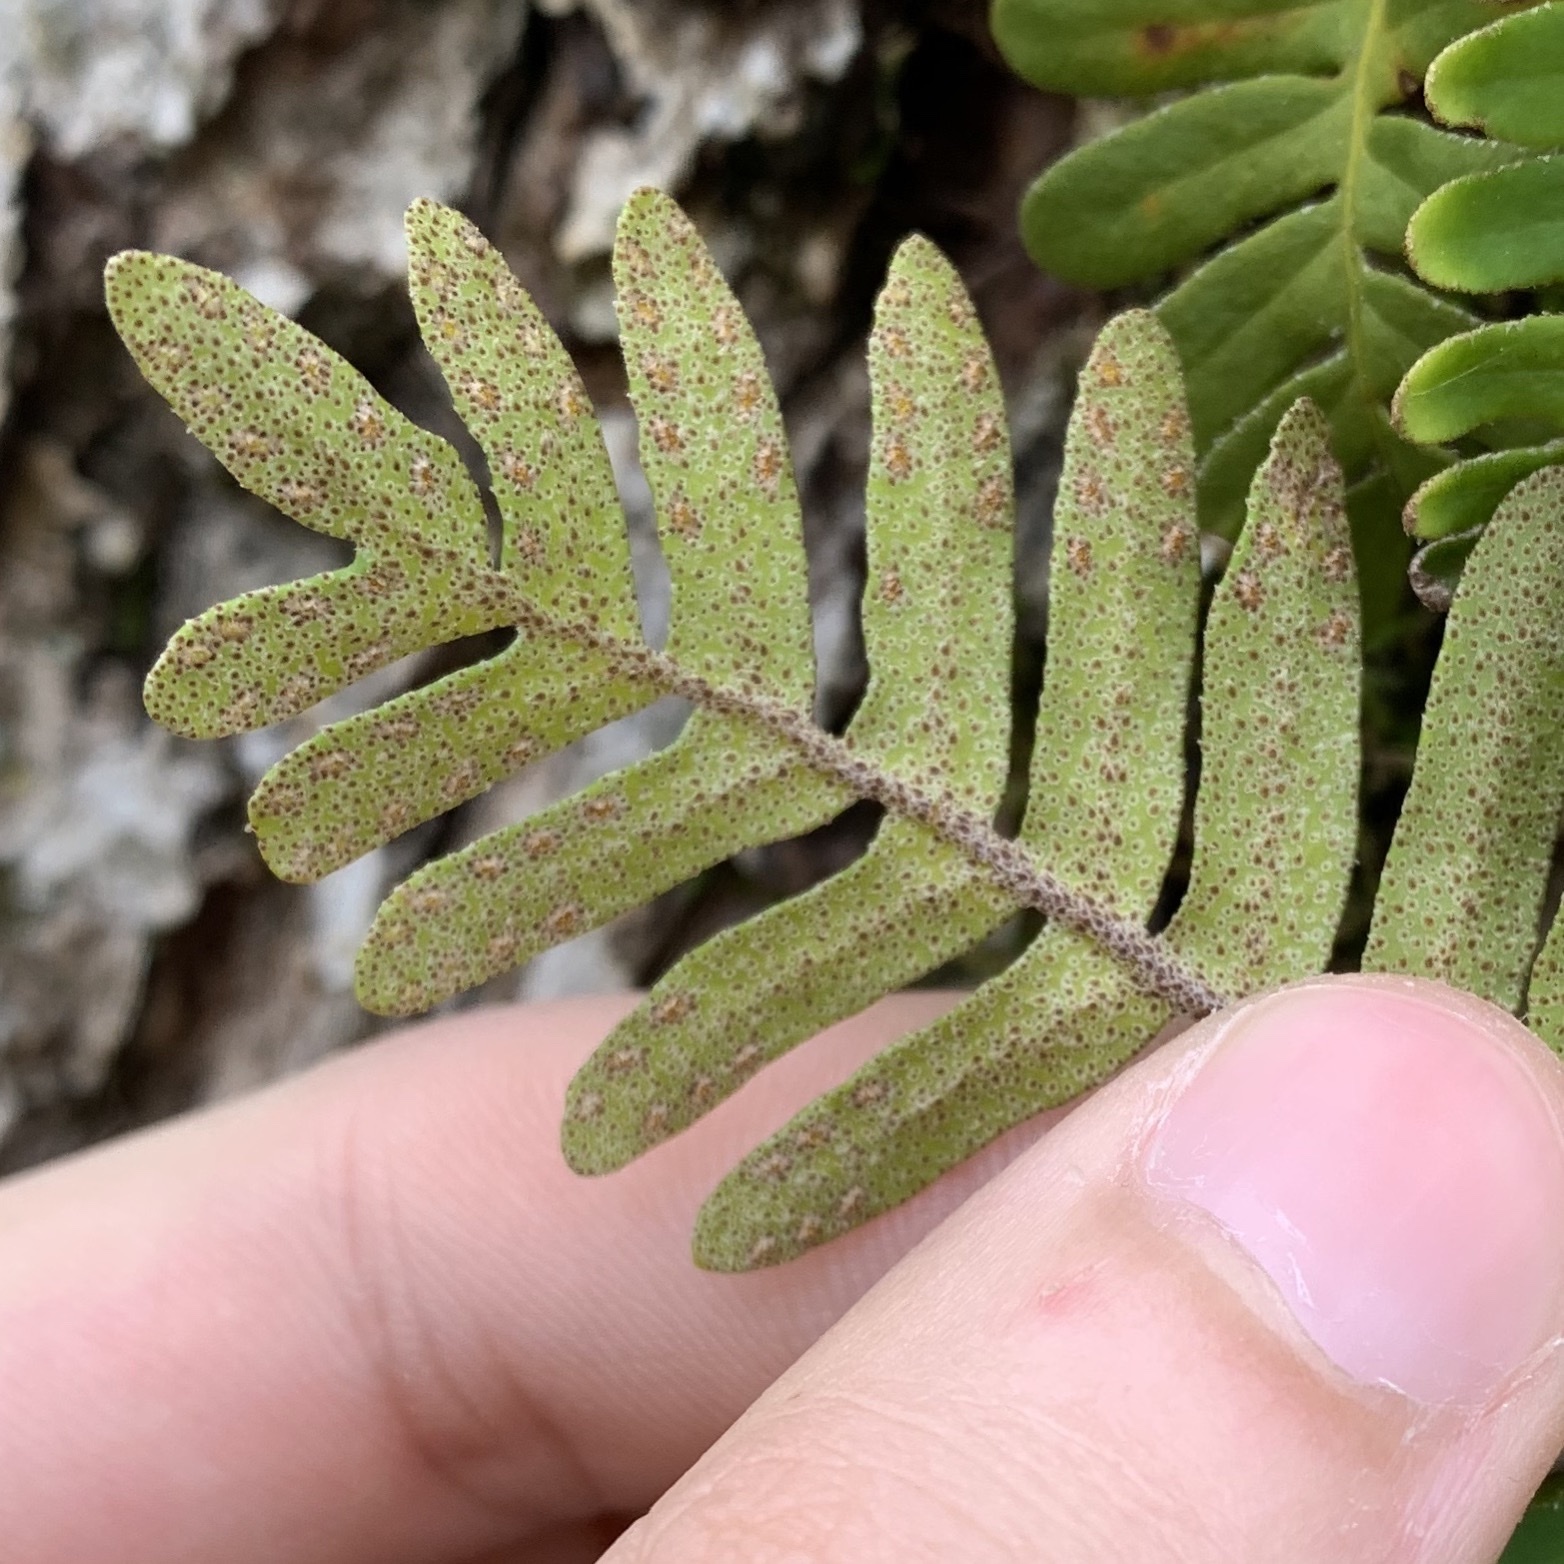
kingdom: Plantae
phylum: Tracheophyta
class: Polypodiopsida
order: Polypodiales
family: Polypodiaceae
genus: Pleopeltis
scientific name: Pleopeltis michauxiana
